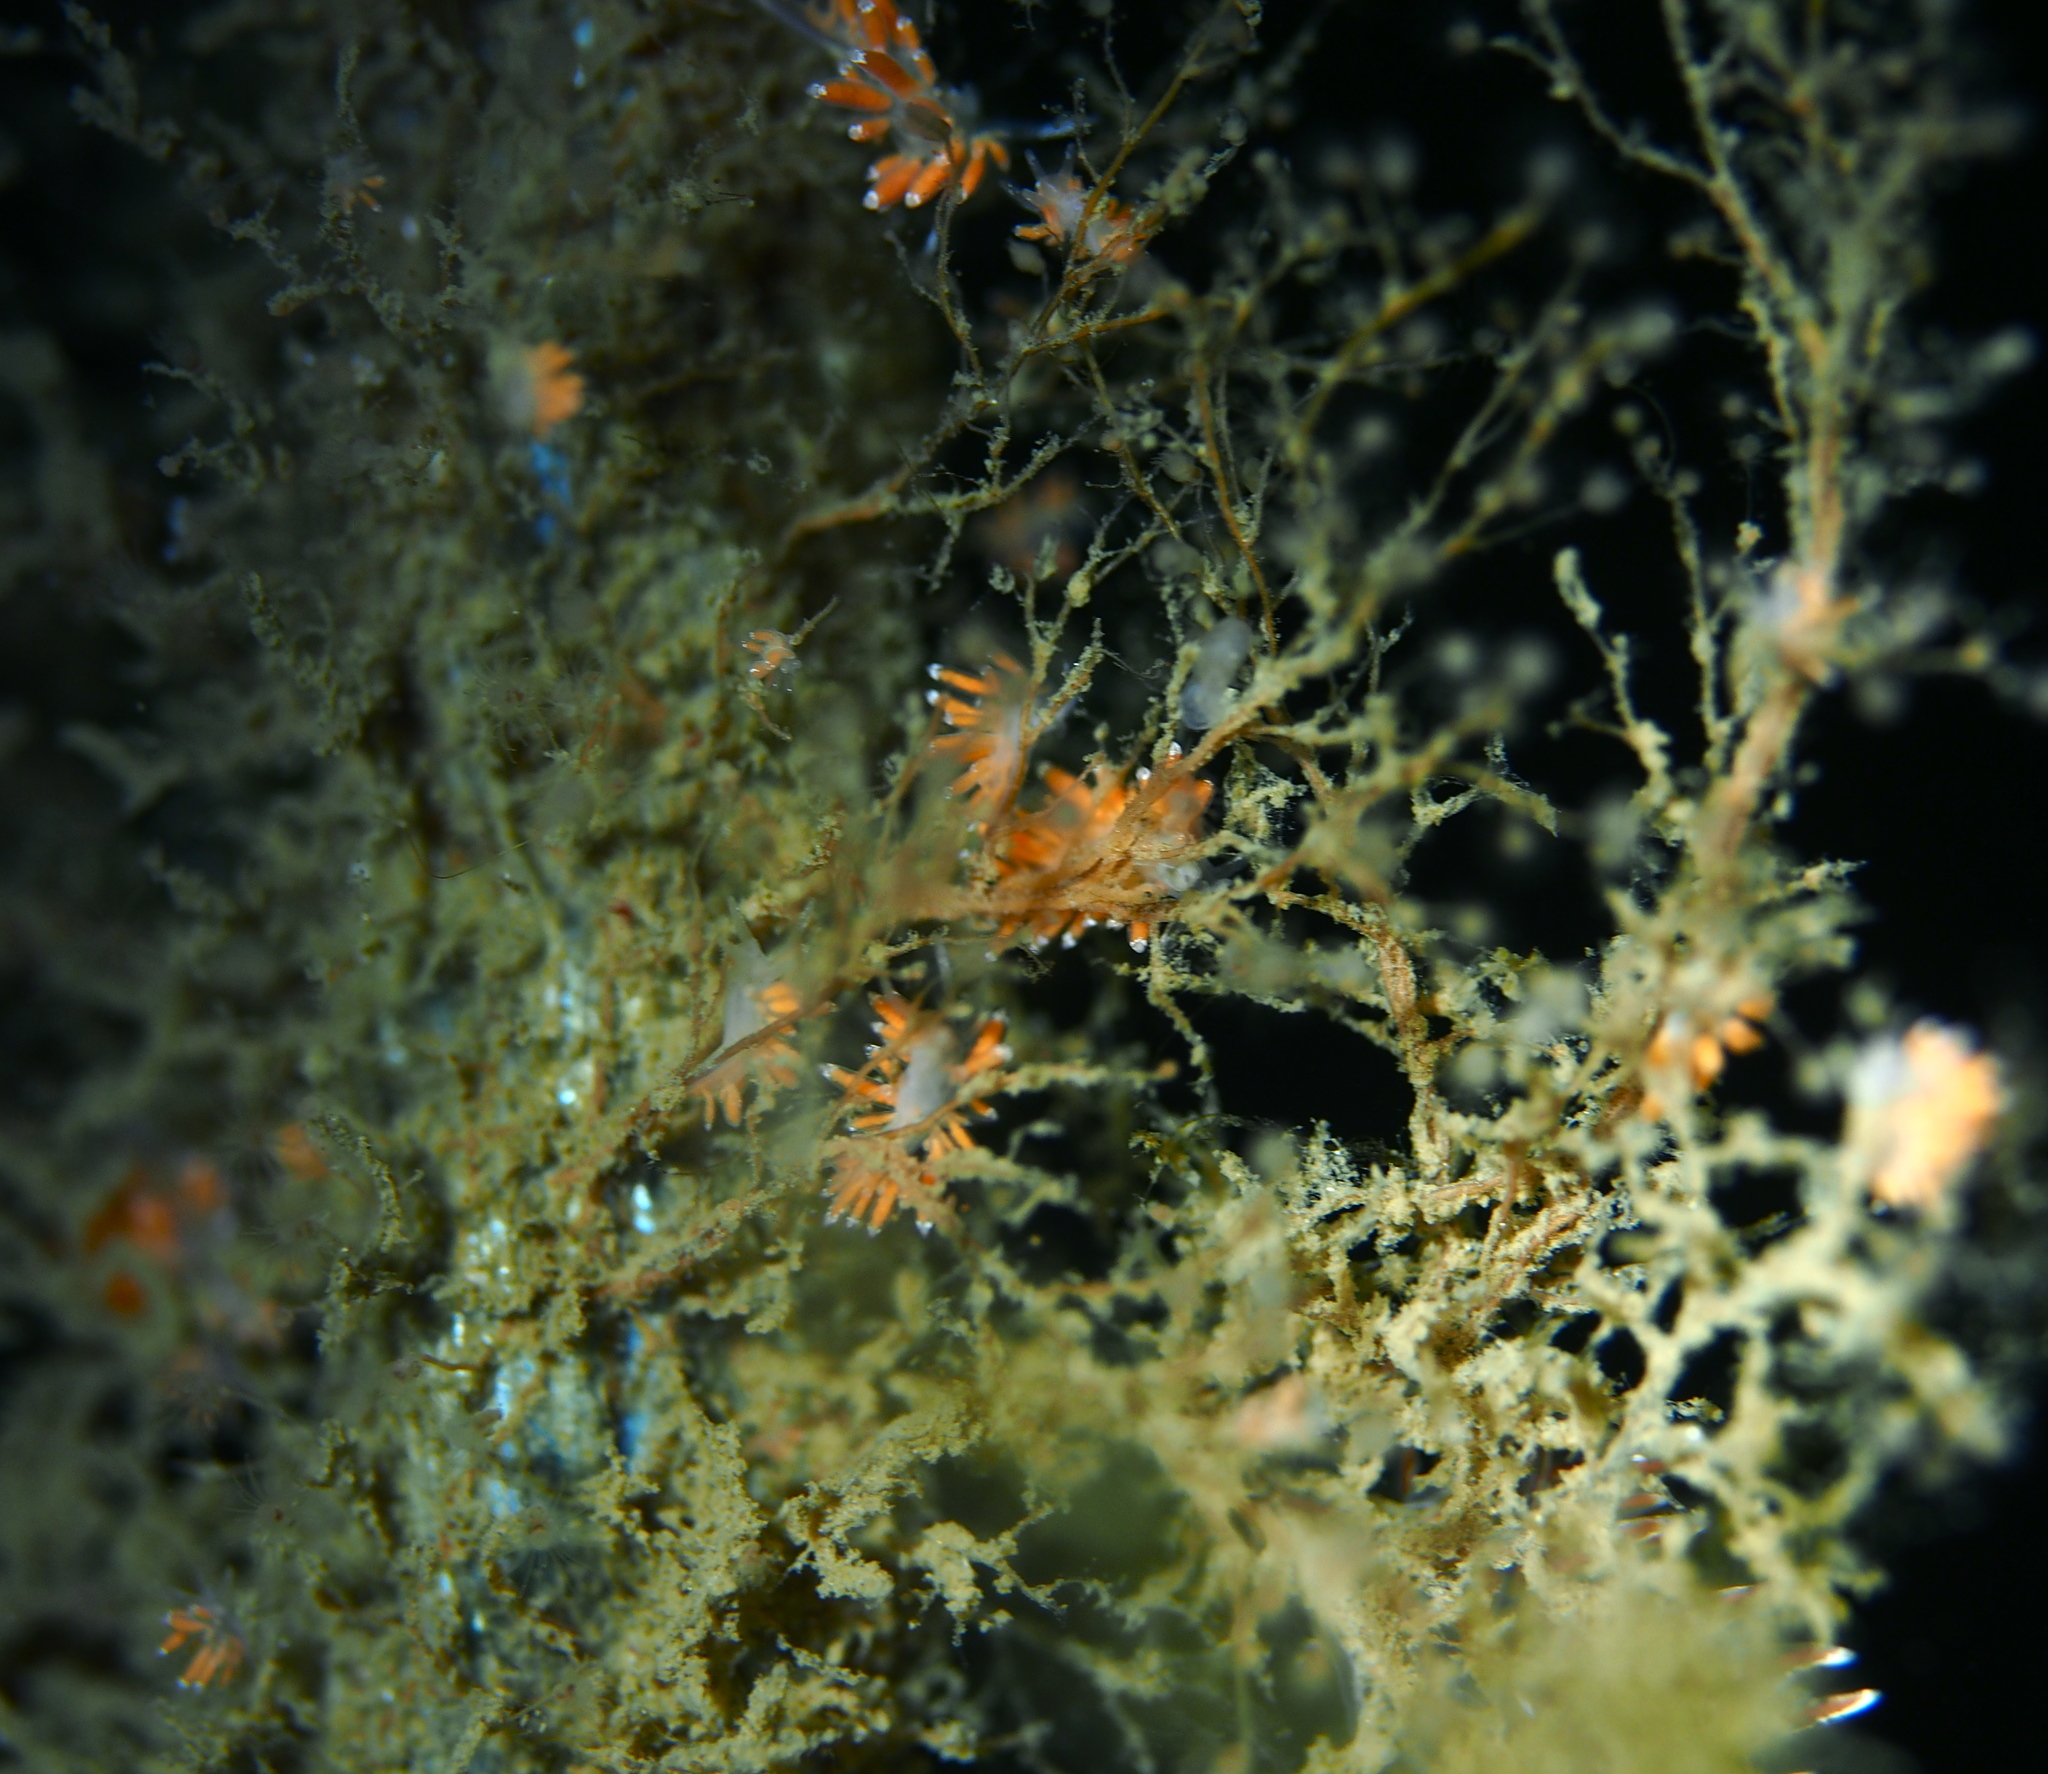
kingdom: Animalia
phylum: Mollusca
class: Gastropoda
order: Nudibranchia
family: Coryphellidae
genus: Coryphella
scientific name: Coryphella gracilis
